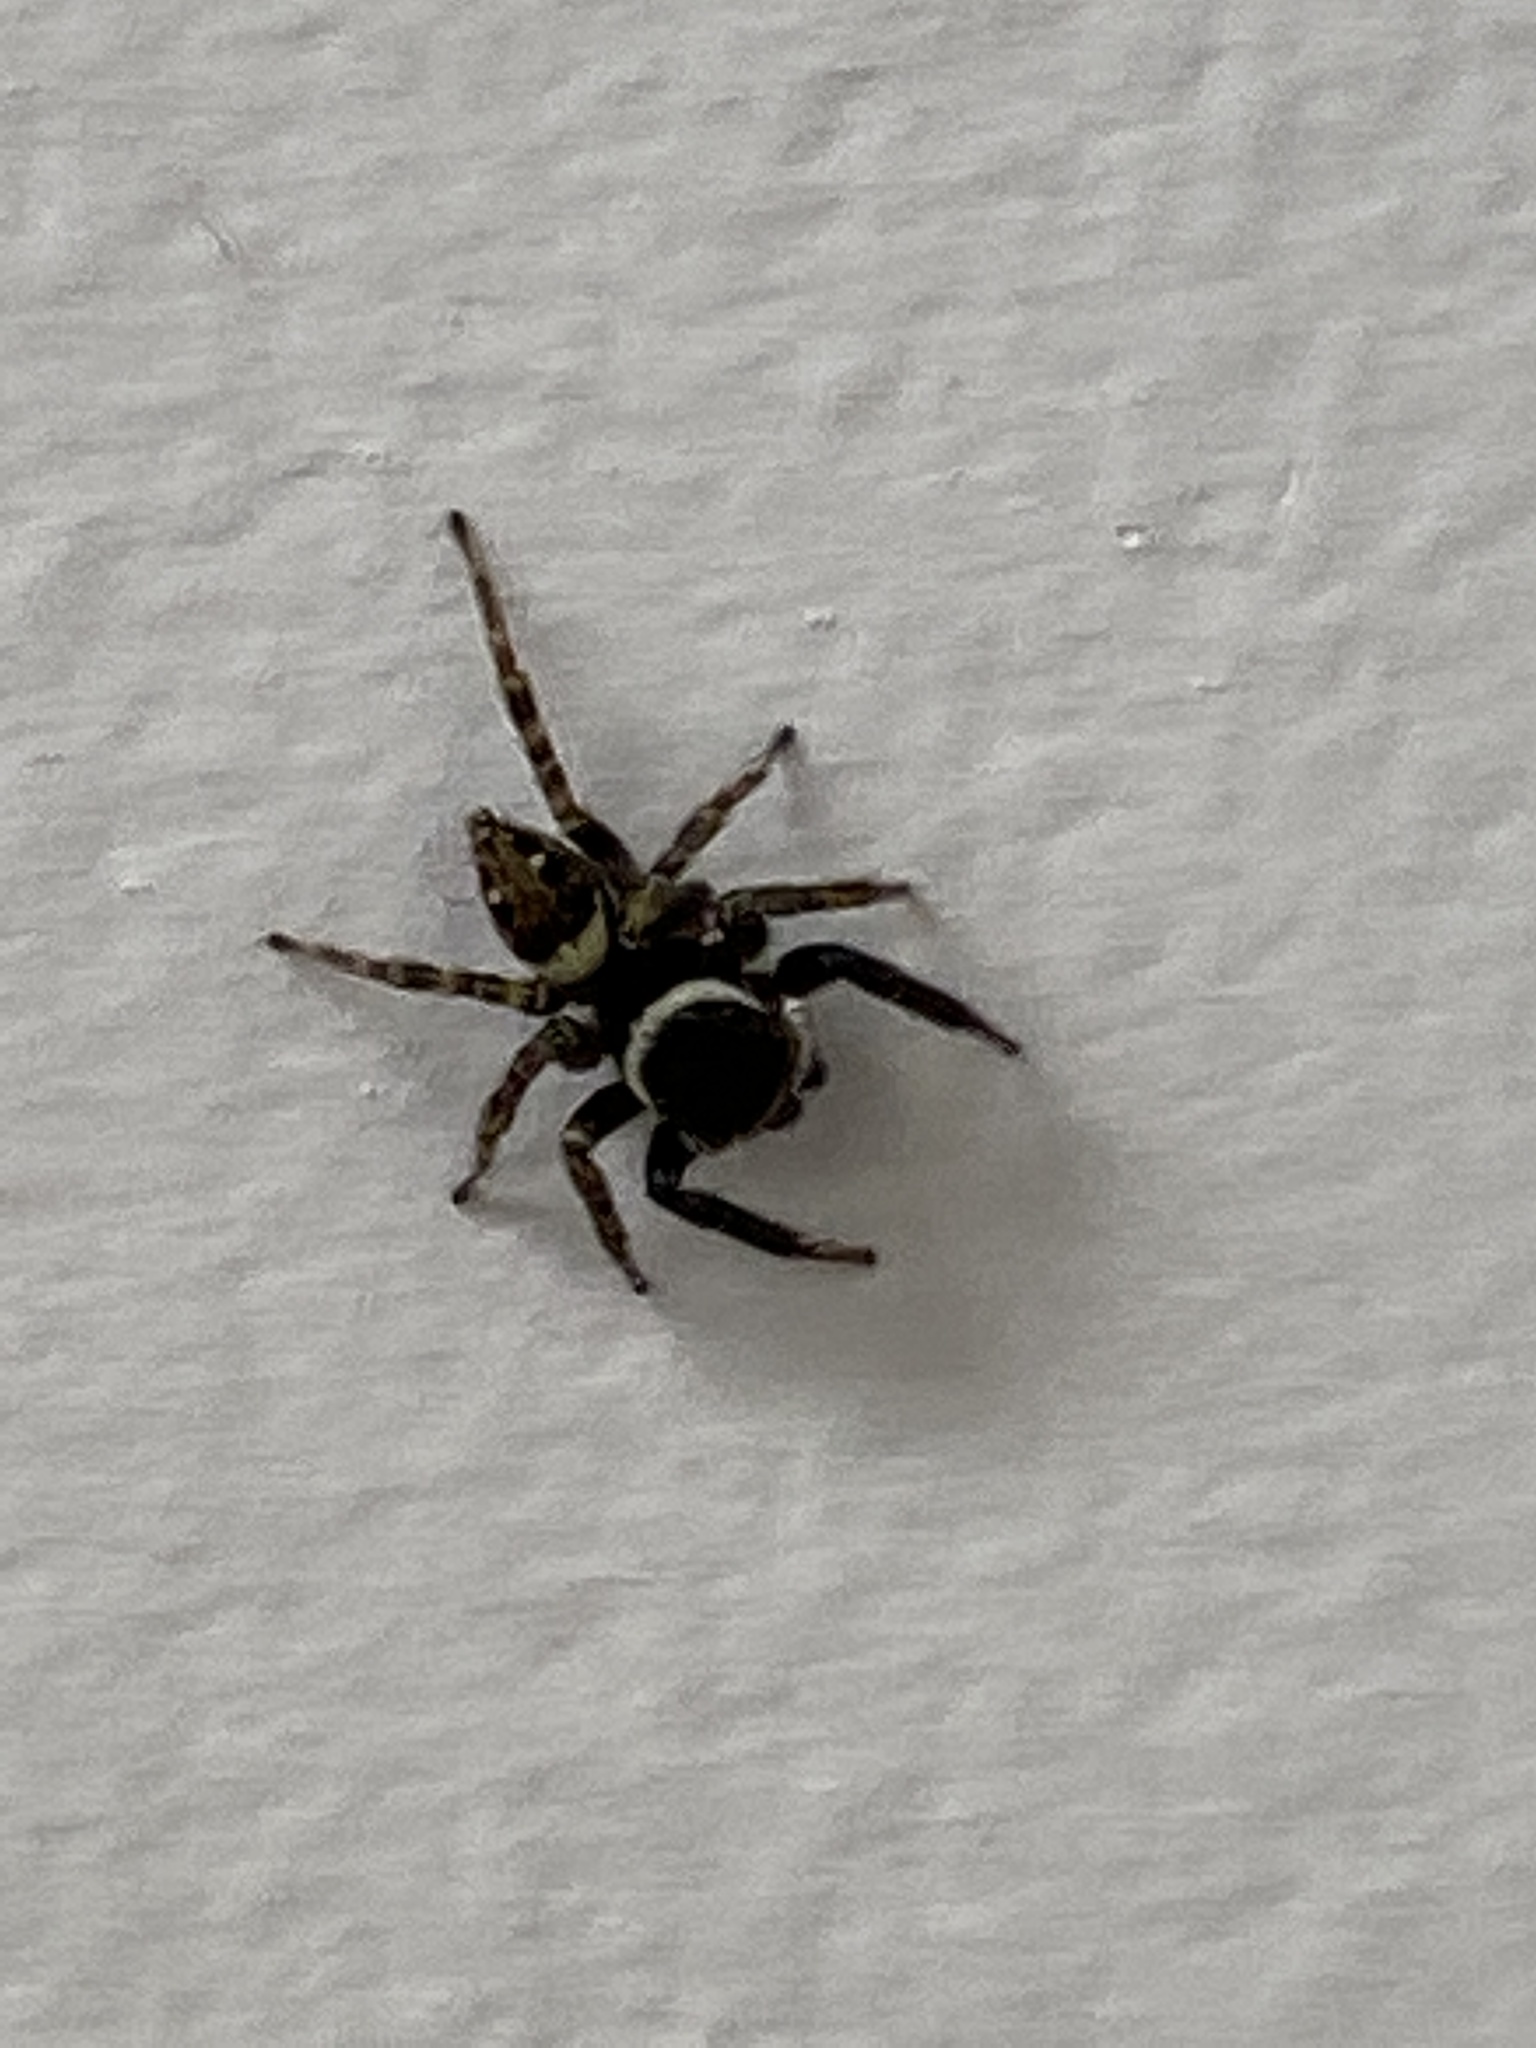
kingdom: Animalia
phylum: Arthropoda
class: Arachnida
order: Araneae
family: Salticidae
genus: Hasarius
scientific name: Hasarius adansoni
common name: Jumping spider
